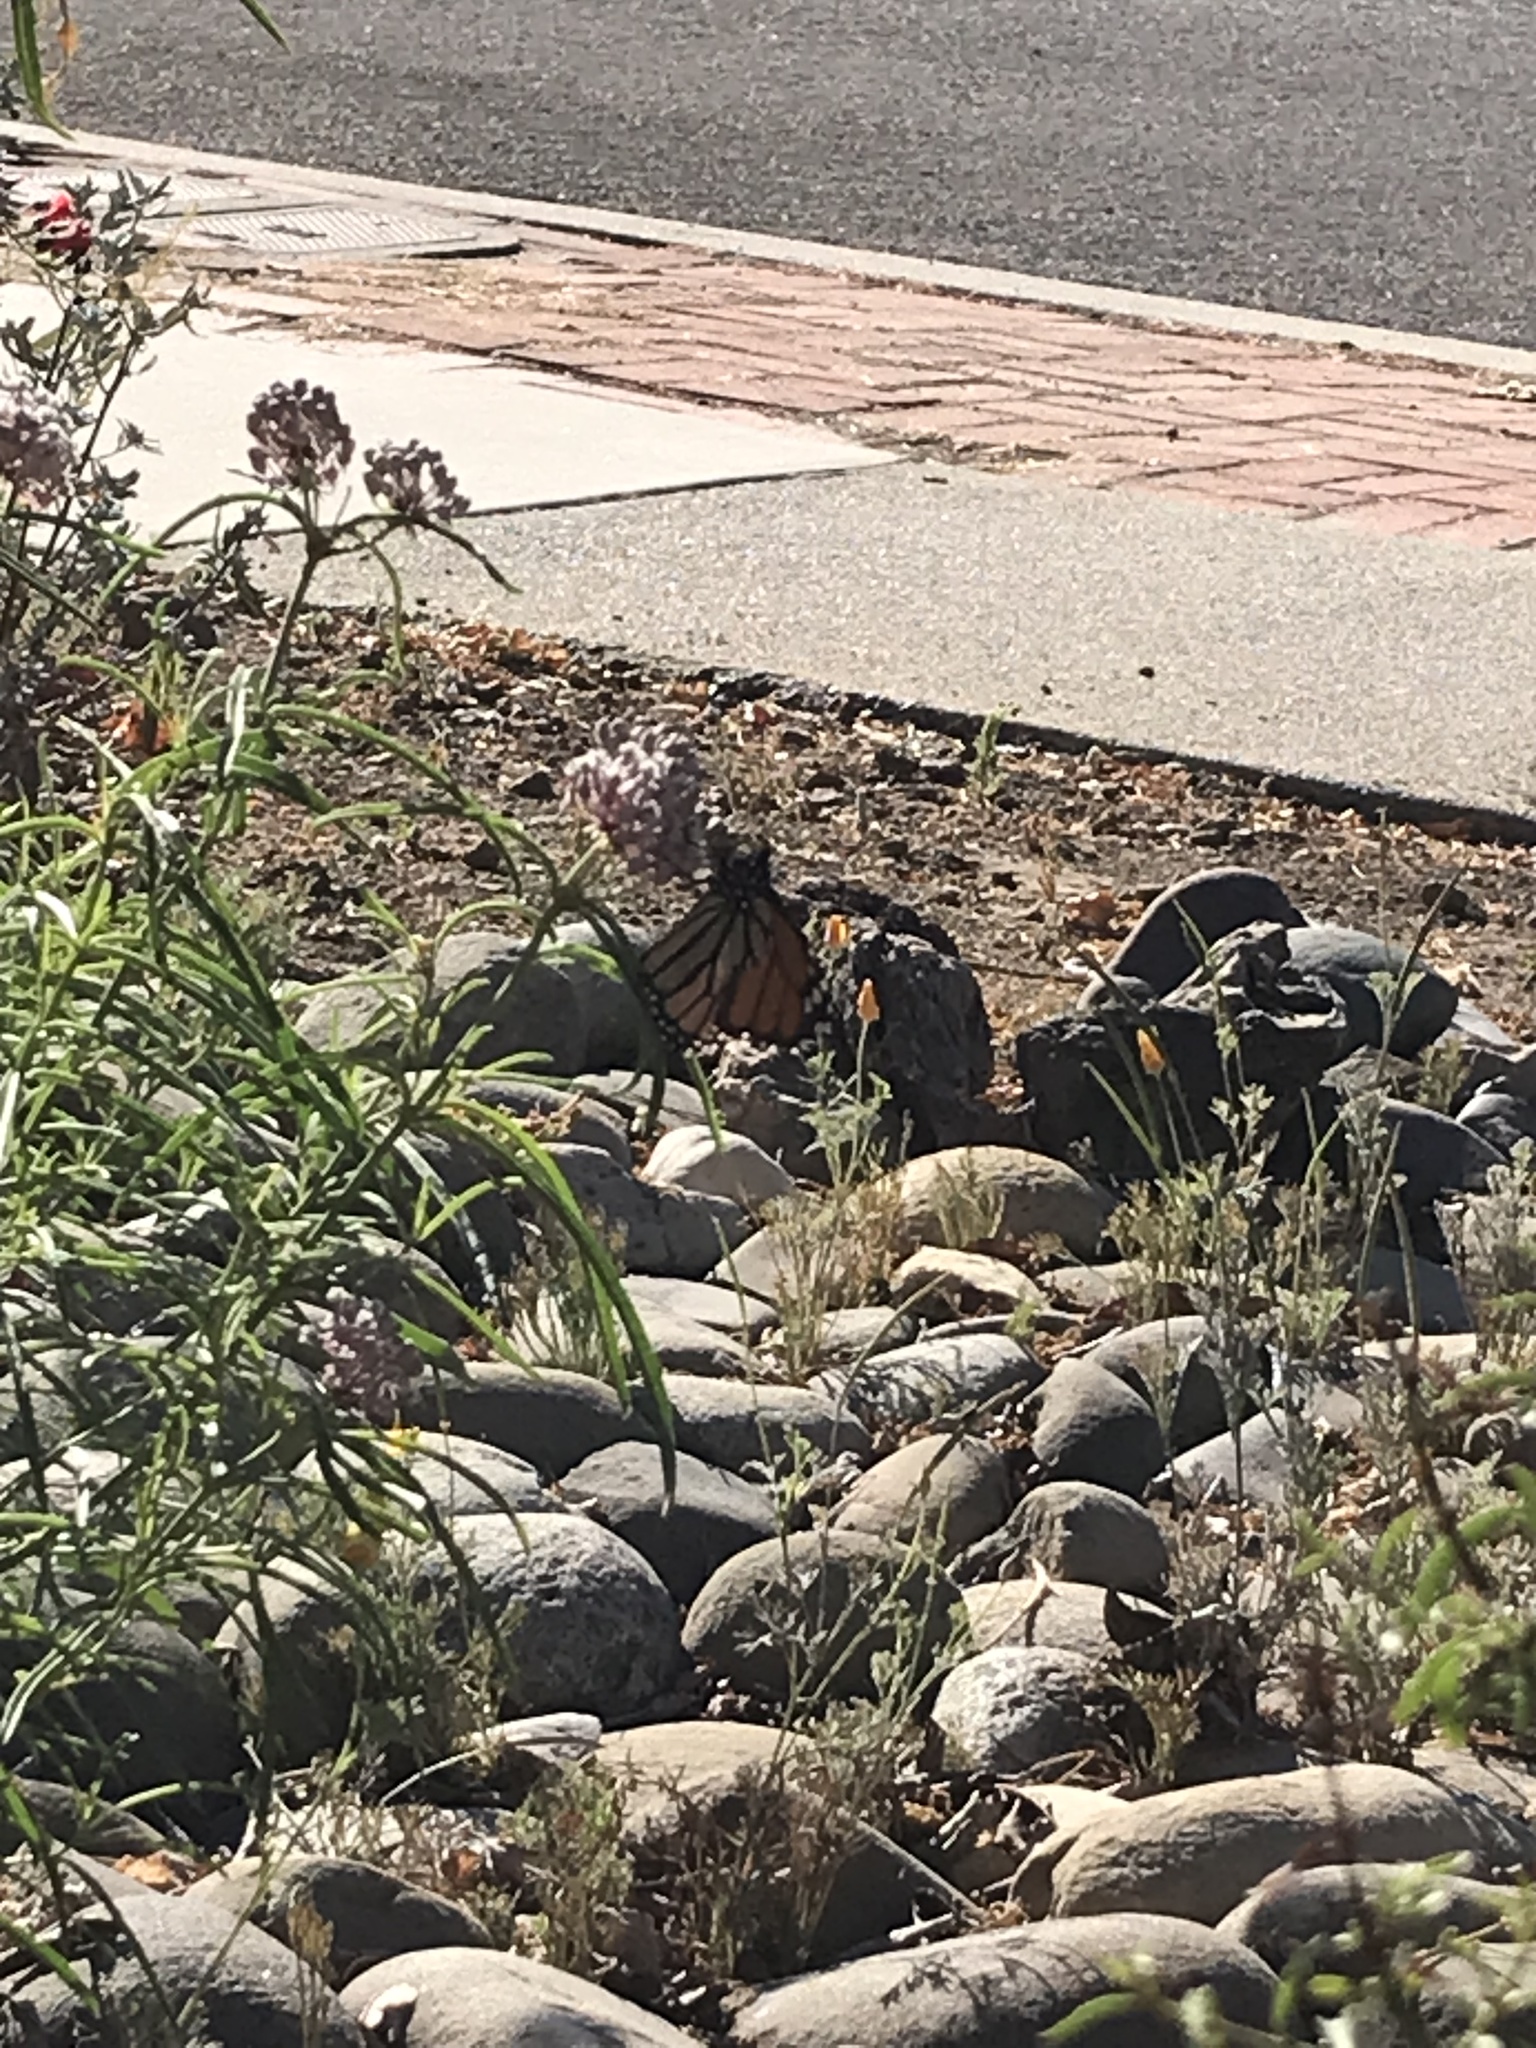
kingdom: Animalia
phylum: Arthropoda
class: Insecta
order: Lepidoptera
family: Nymphalidae
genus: Danaus
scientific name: Danaus plexippus
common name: Monarch
